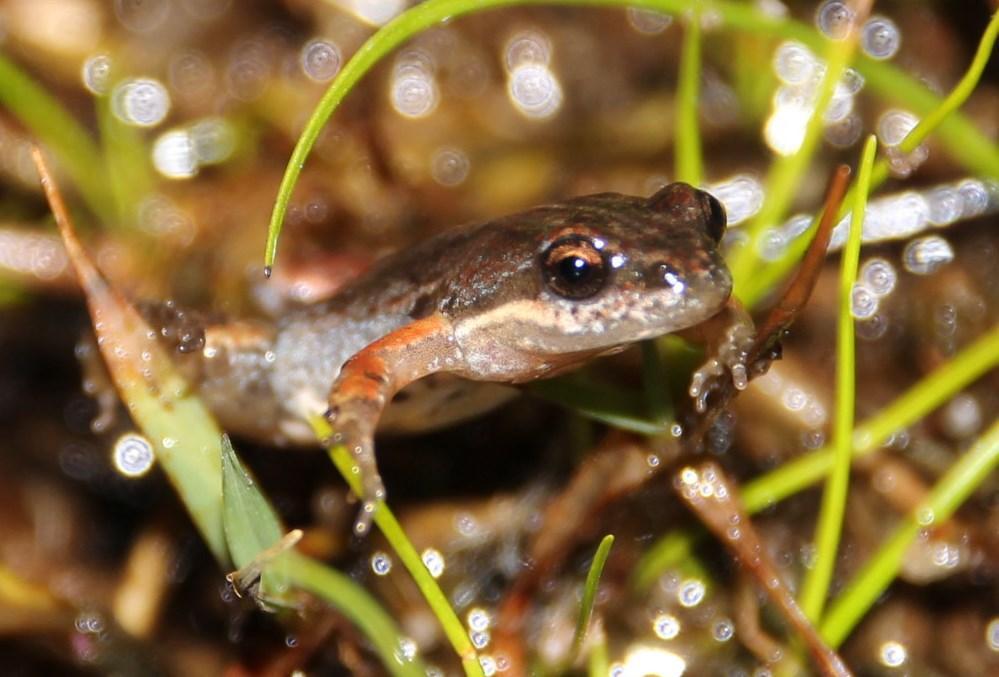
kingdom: Animalia
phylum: Chordata
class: Amphibia
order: Anura
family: Pyxicephalidae
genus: Cacosternum
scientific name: Cacosternum platys
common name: Smooth dainty frog
